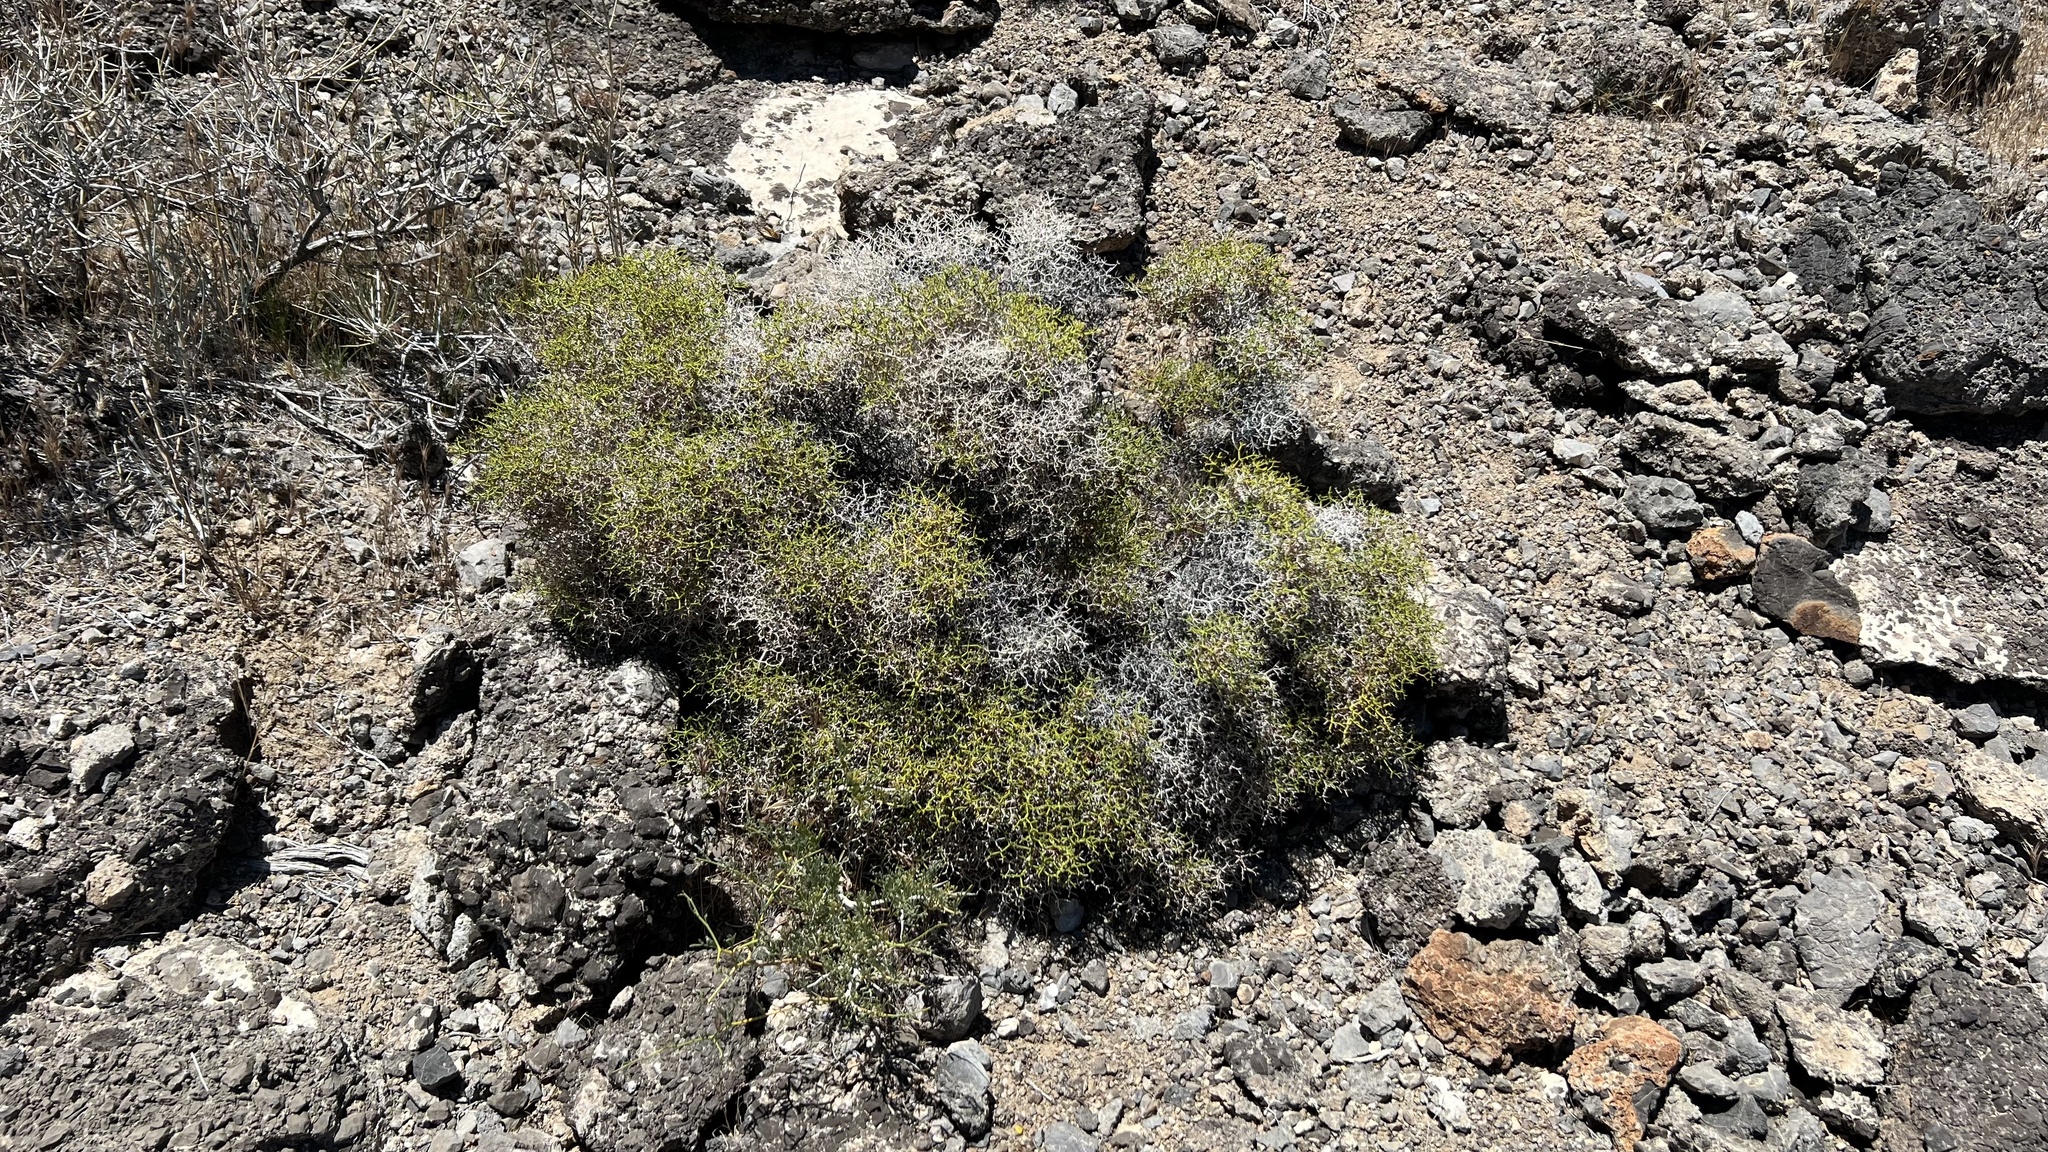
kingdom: Plantae
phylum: Tracheophyta
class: Magnoliopsida
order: Caryophyllales
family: Polygonaceae
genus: Eriogonum
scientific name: Eriogonum heermannii
